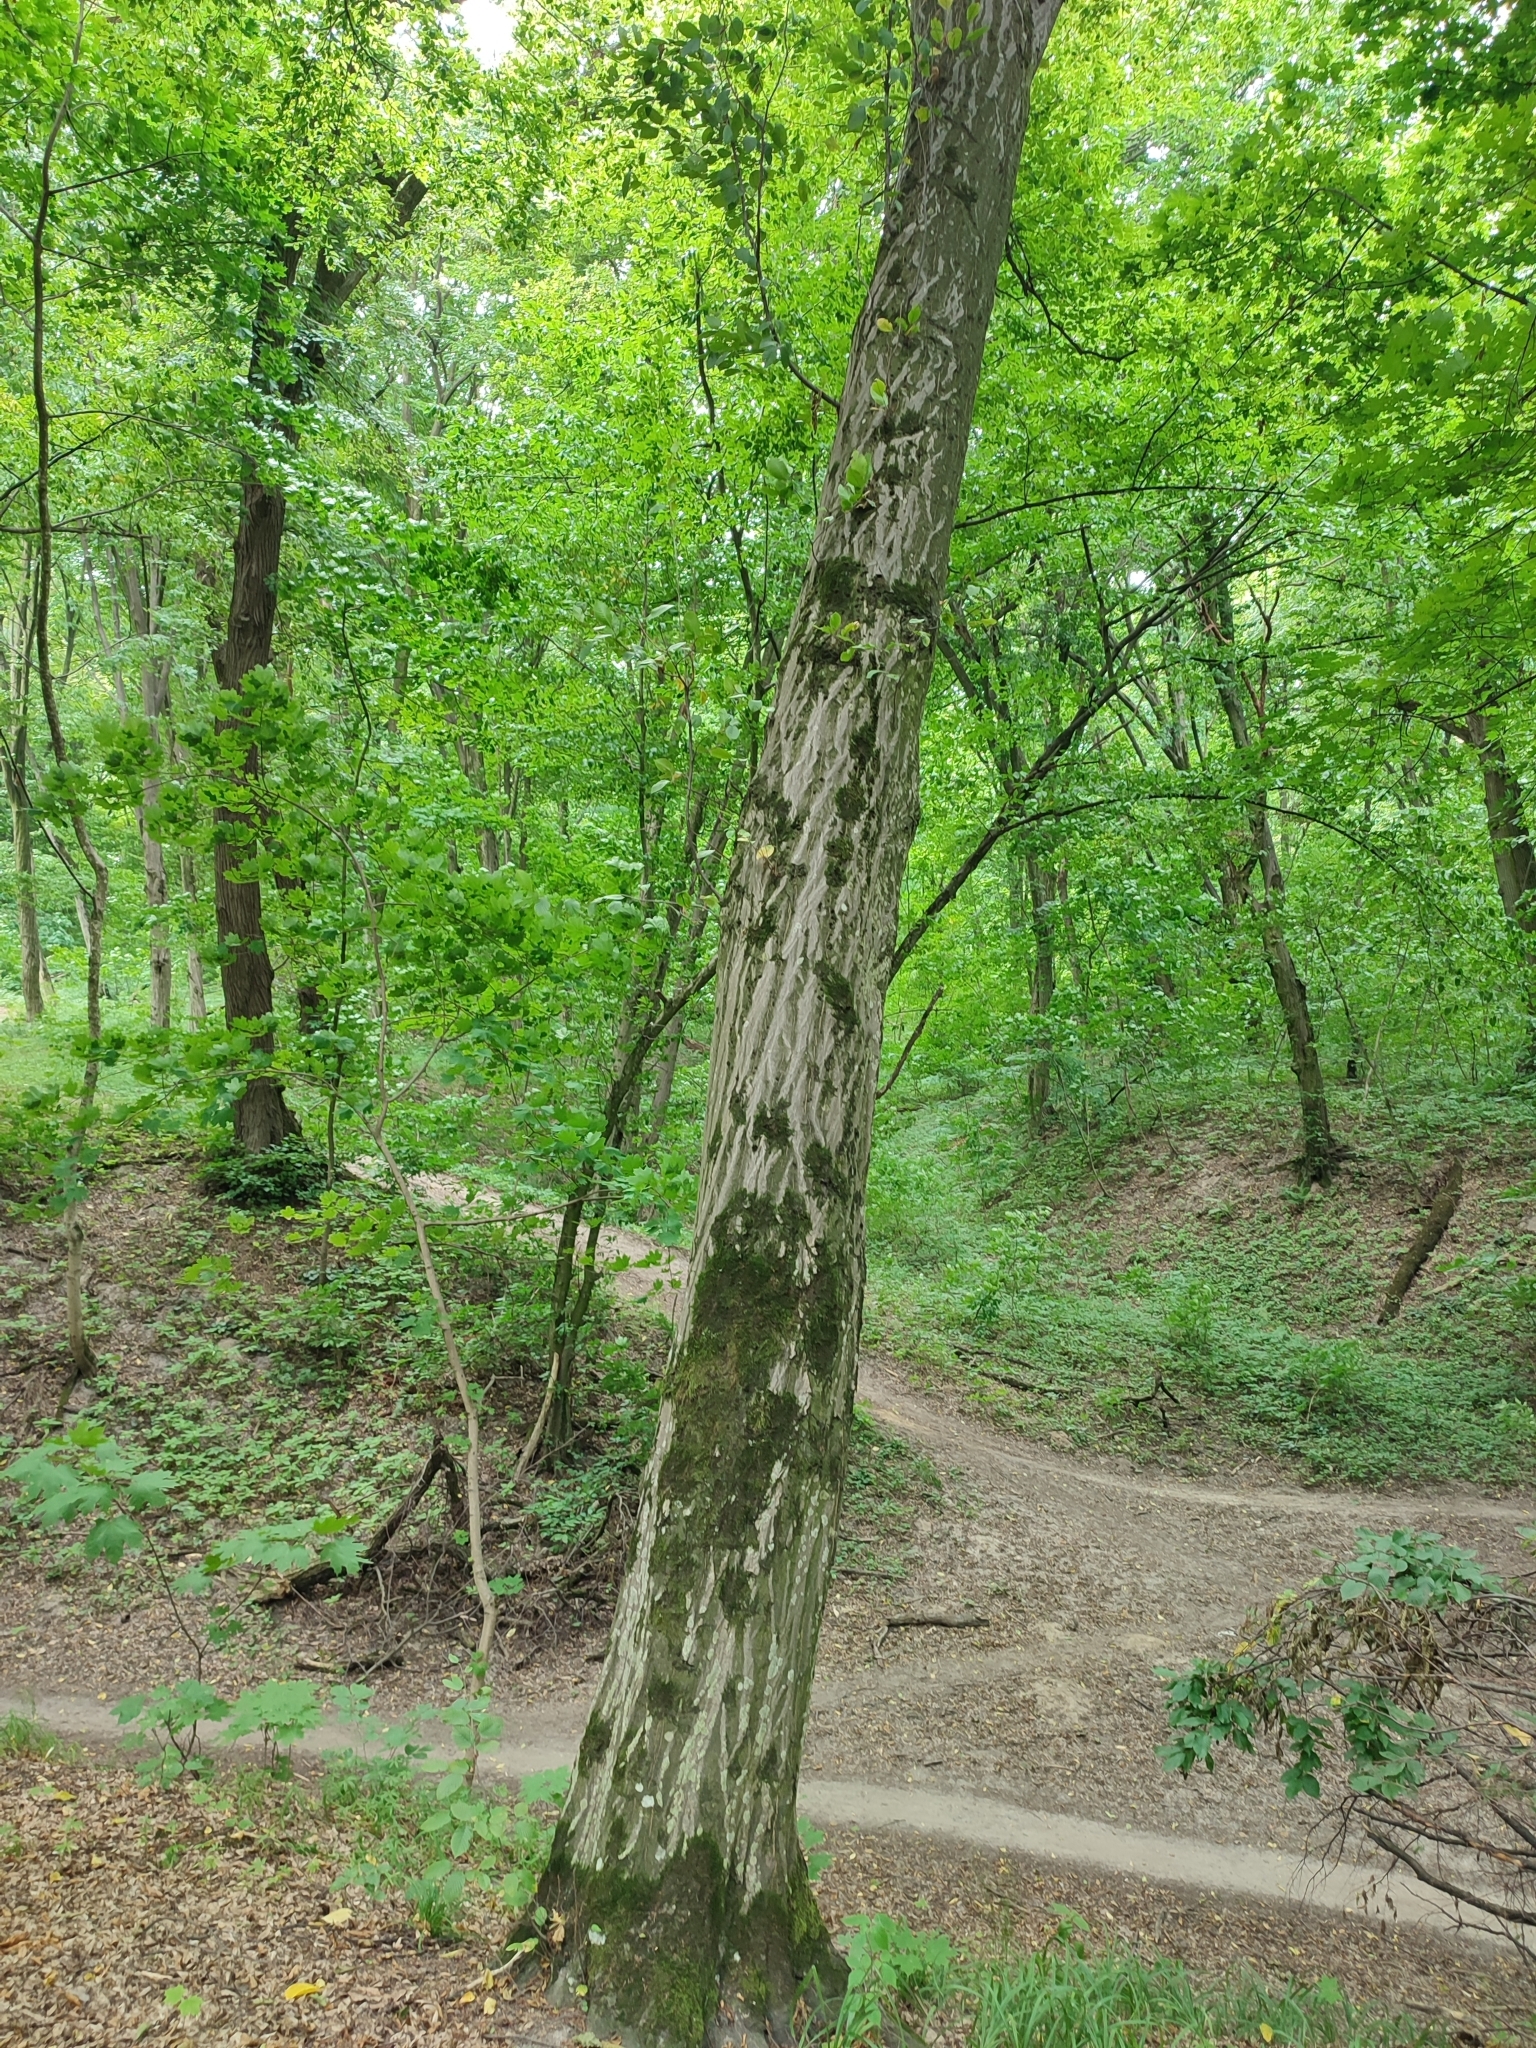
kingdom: Plantae
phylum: Tracheophyta
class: Magnoliopsida
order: Fagales
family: Betulaceae
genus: Carpinus
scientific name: Carpinus betulus
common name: Hornbeam
